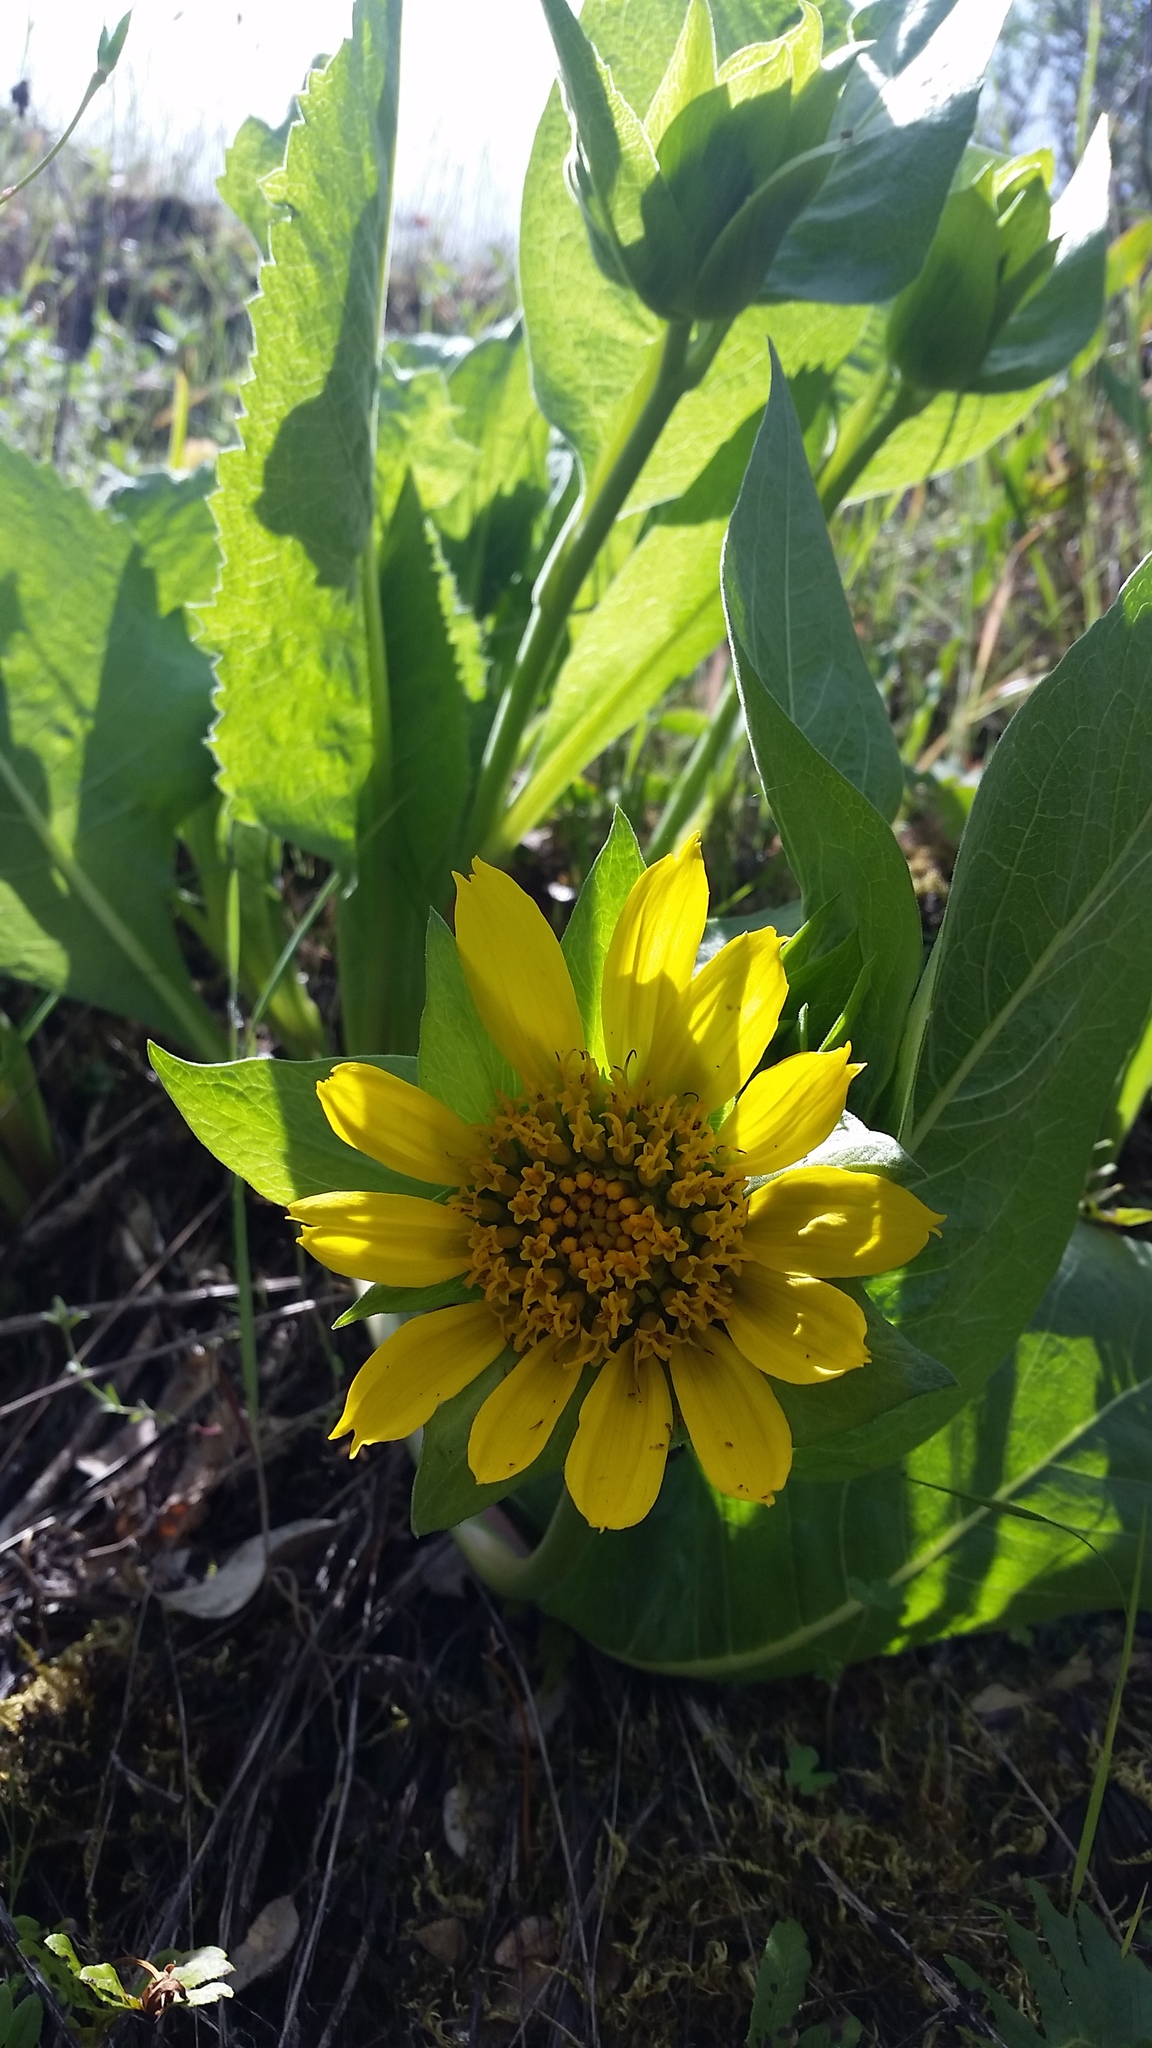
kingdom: Plantae
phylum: Tracheophyta
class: Magnoliopsida
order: Asterales
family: Asteraceae
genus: Wyethia
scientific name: Wyethia glabra
